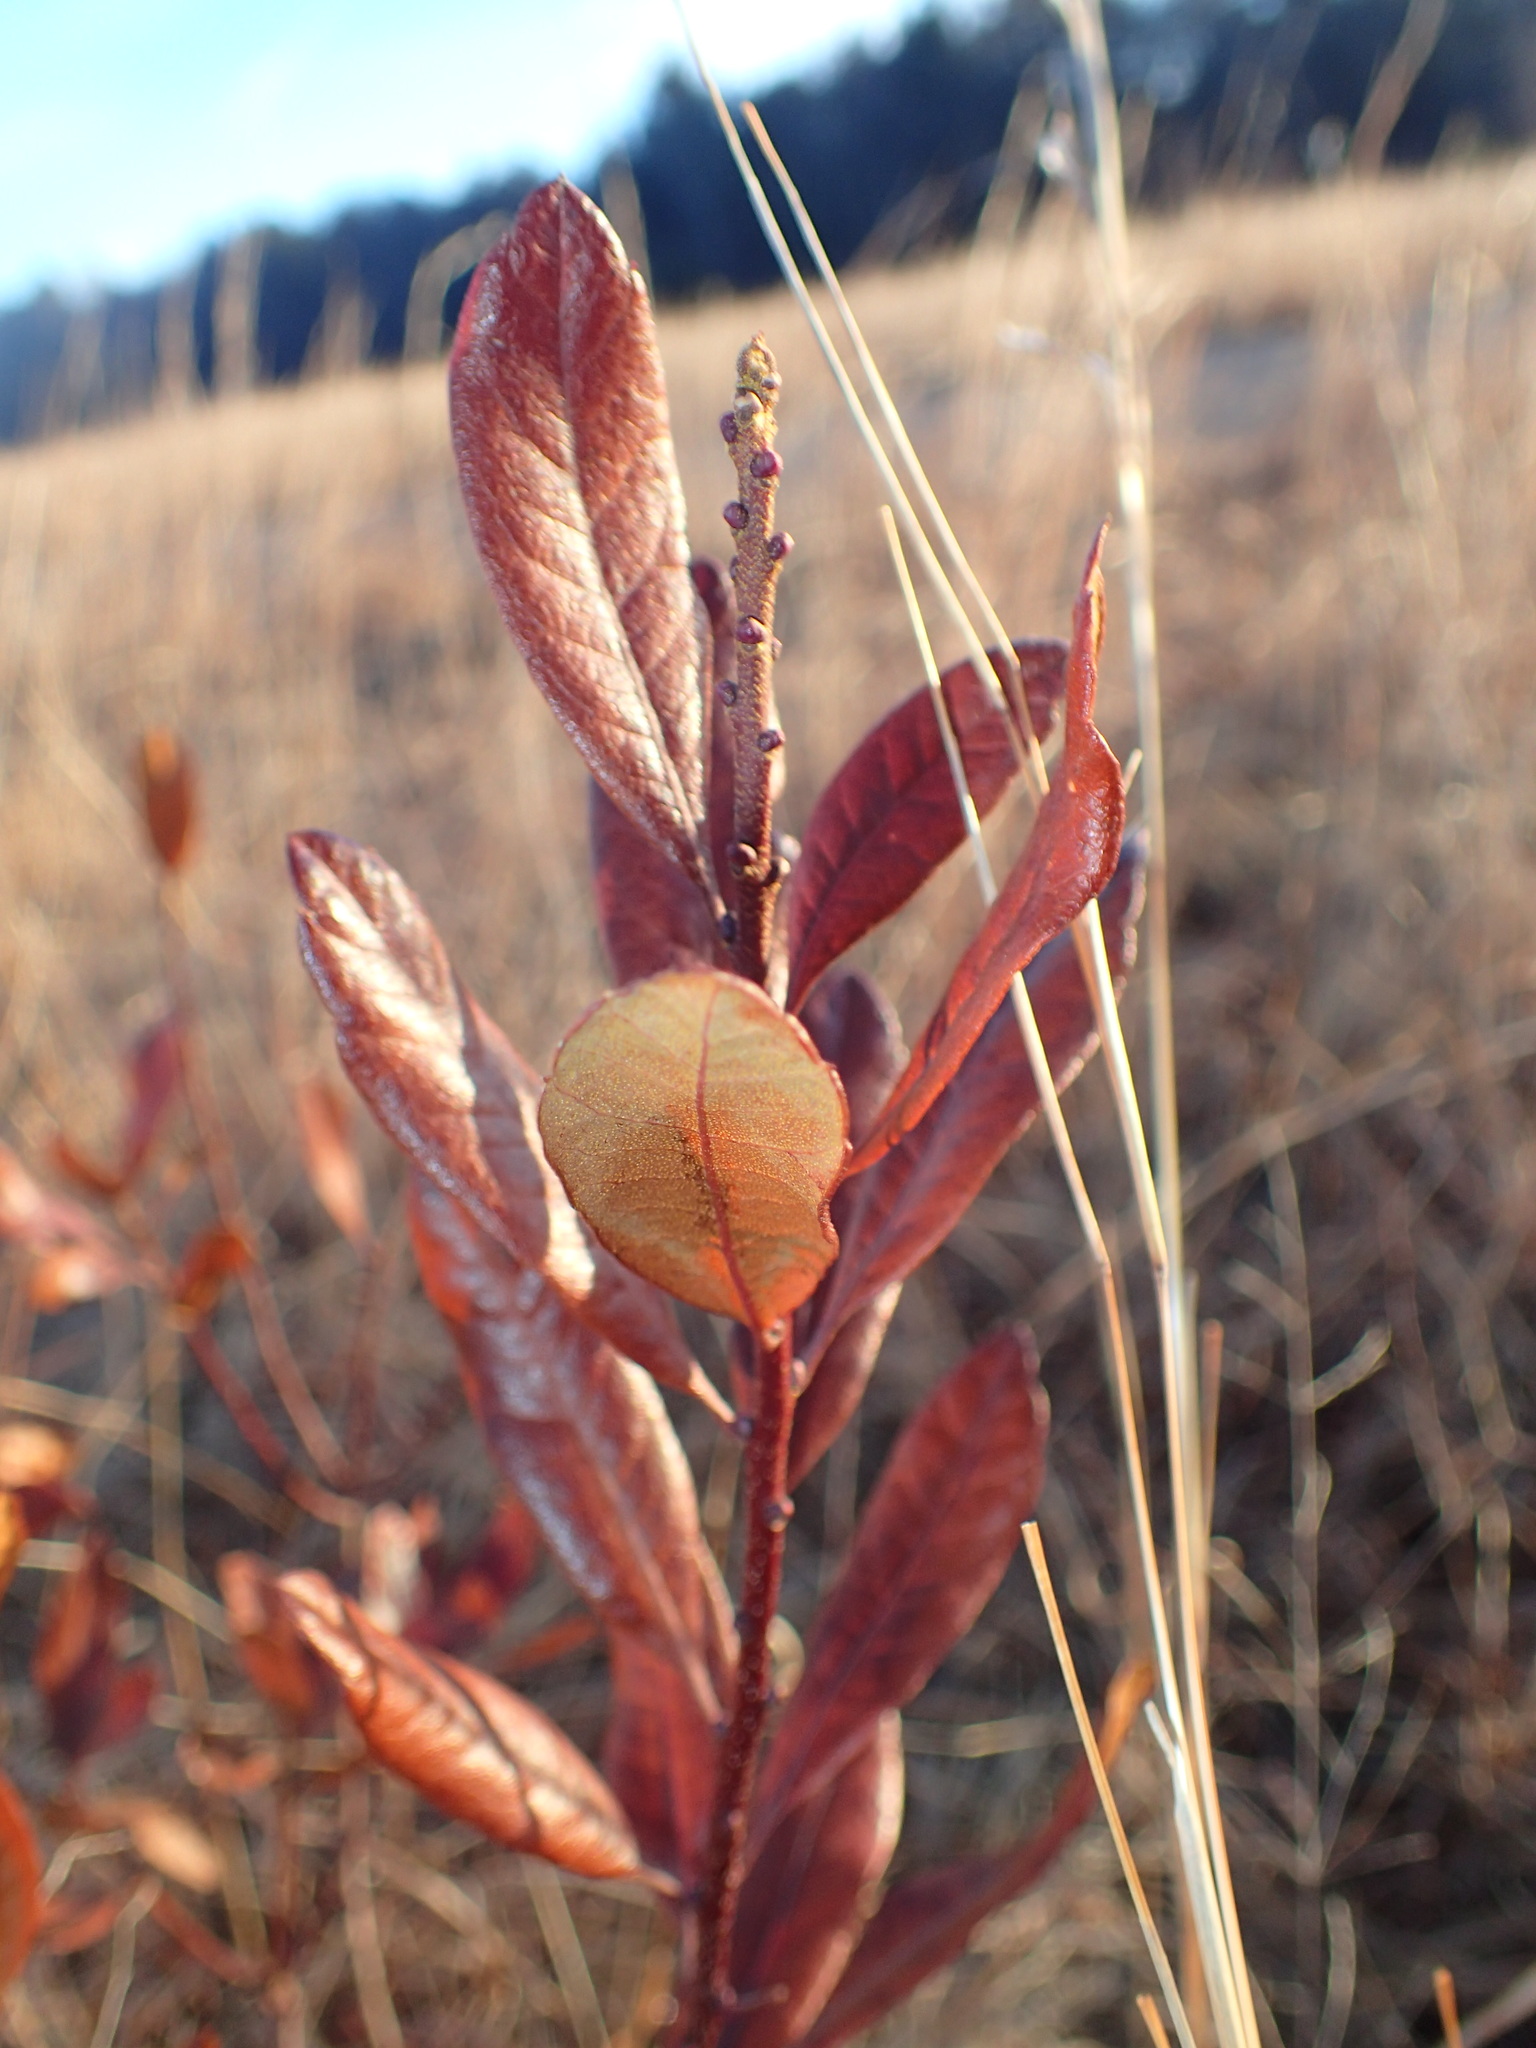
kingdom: Plantae
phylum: Tracheophyta
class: Magnoliopsida
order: Fagales
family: Myricaceae
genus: Morella
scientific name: Morella pensylvanica
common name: Northern bayberry
